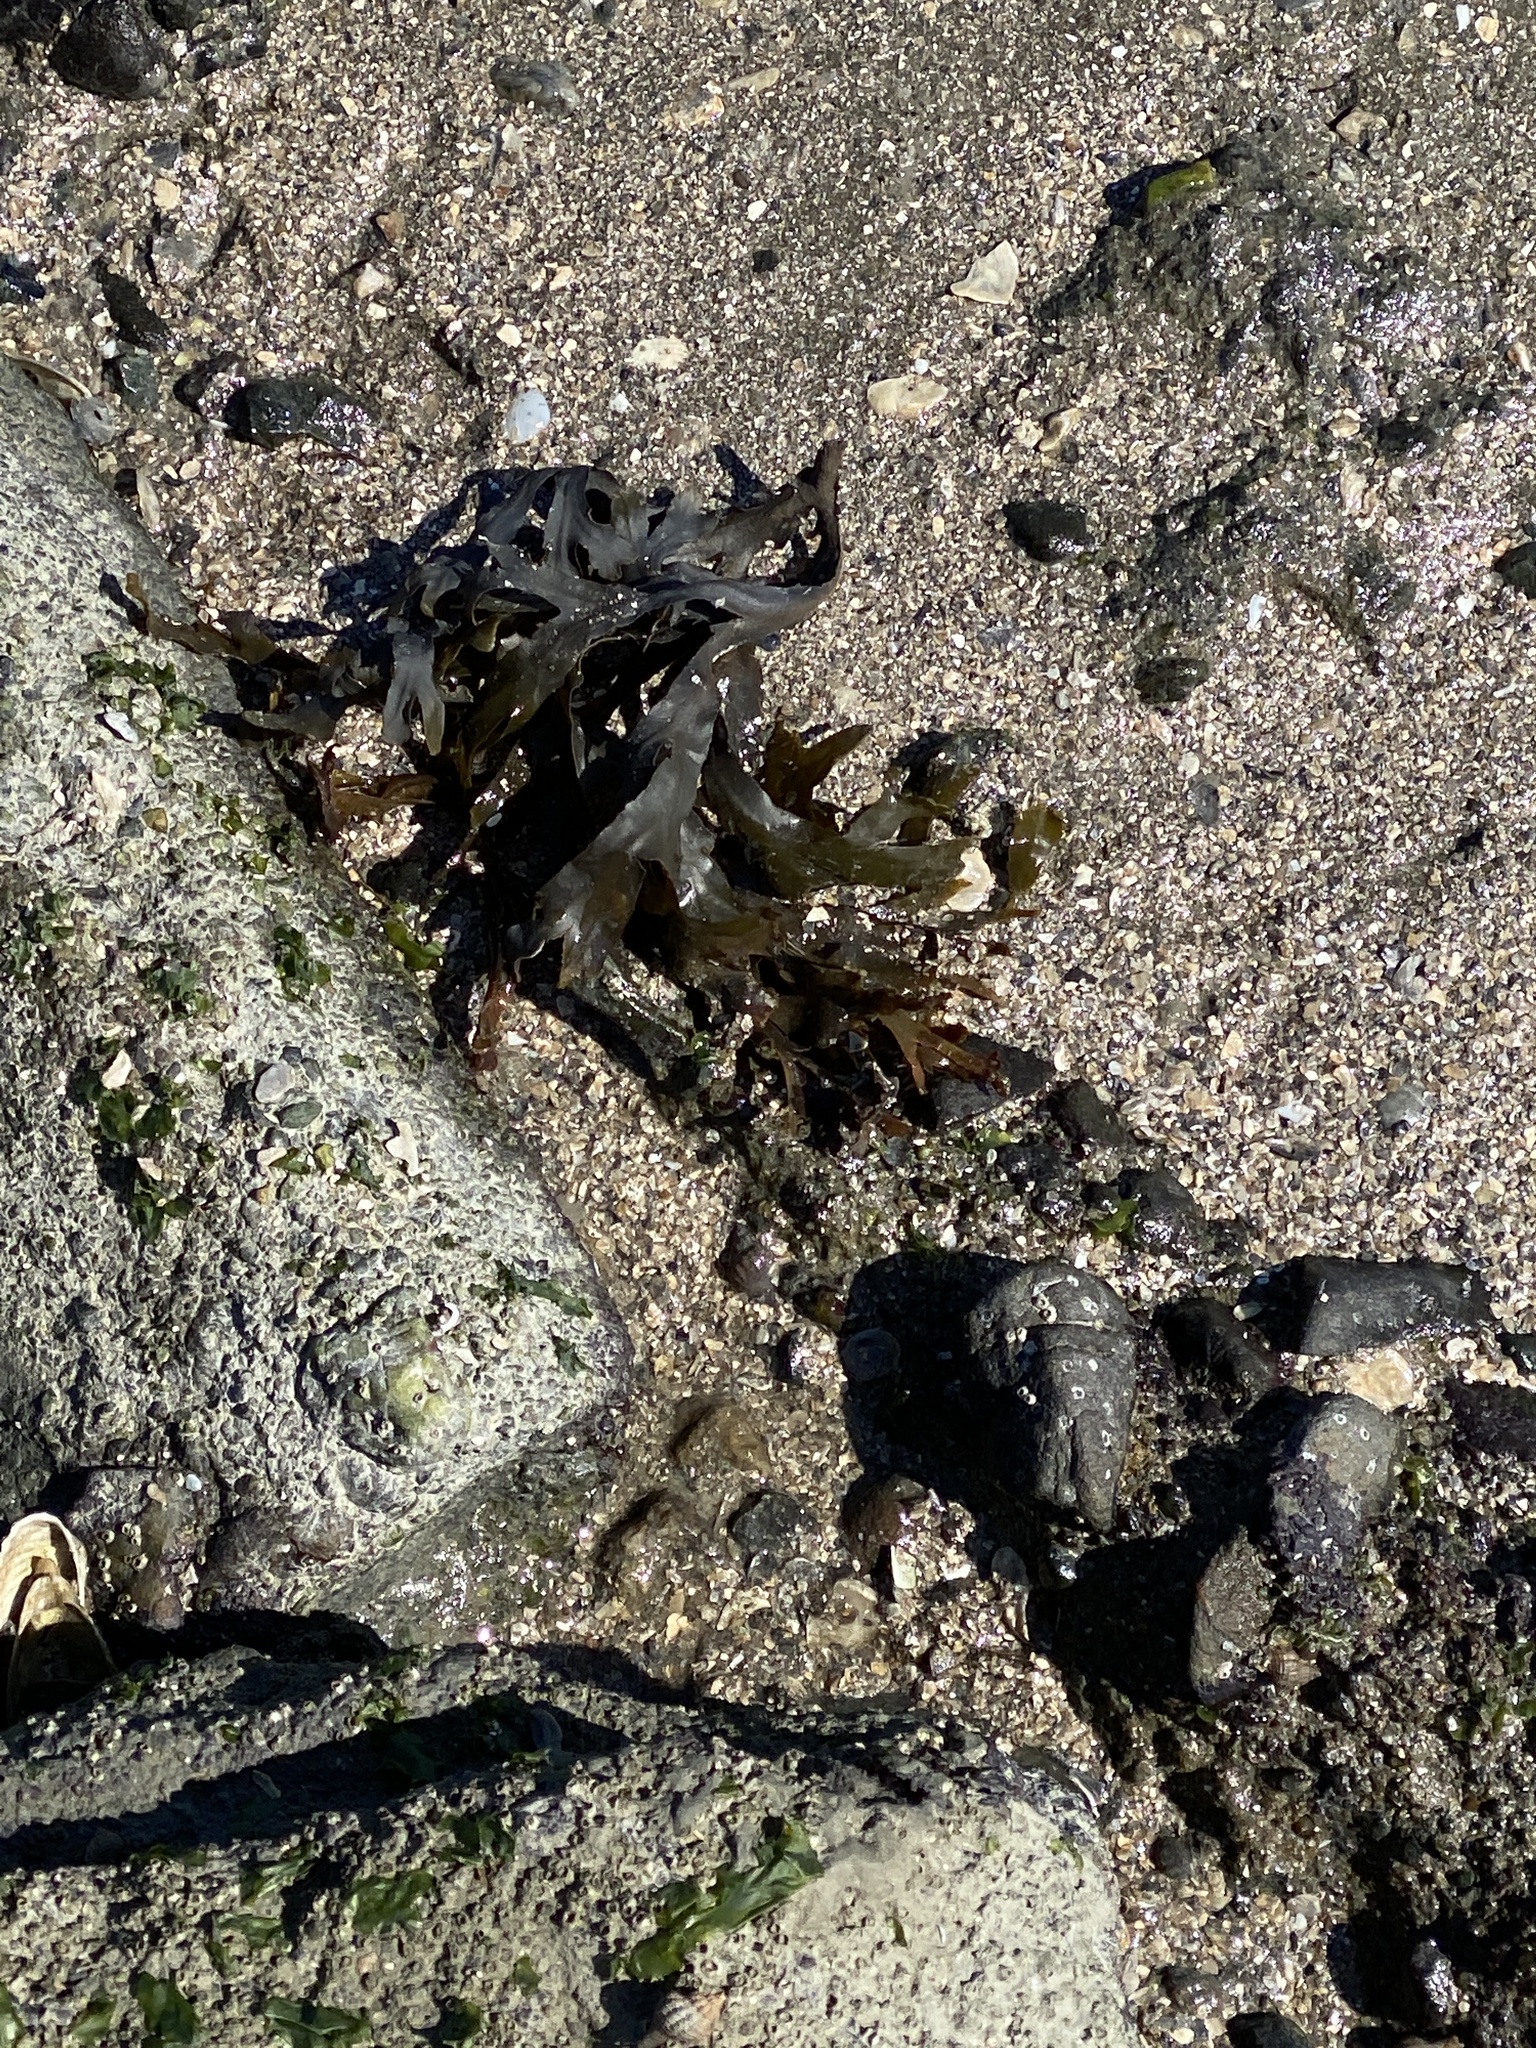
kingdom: Chromista
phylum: Ochrophyta
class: Phaeophyceae
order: Fucales
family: Fucaceae
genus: Fucus
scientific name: Fucus distichus
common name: Rockweed
